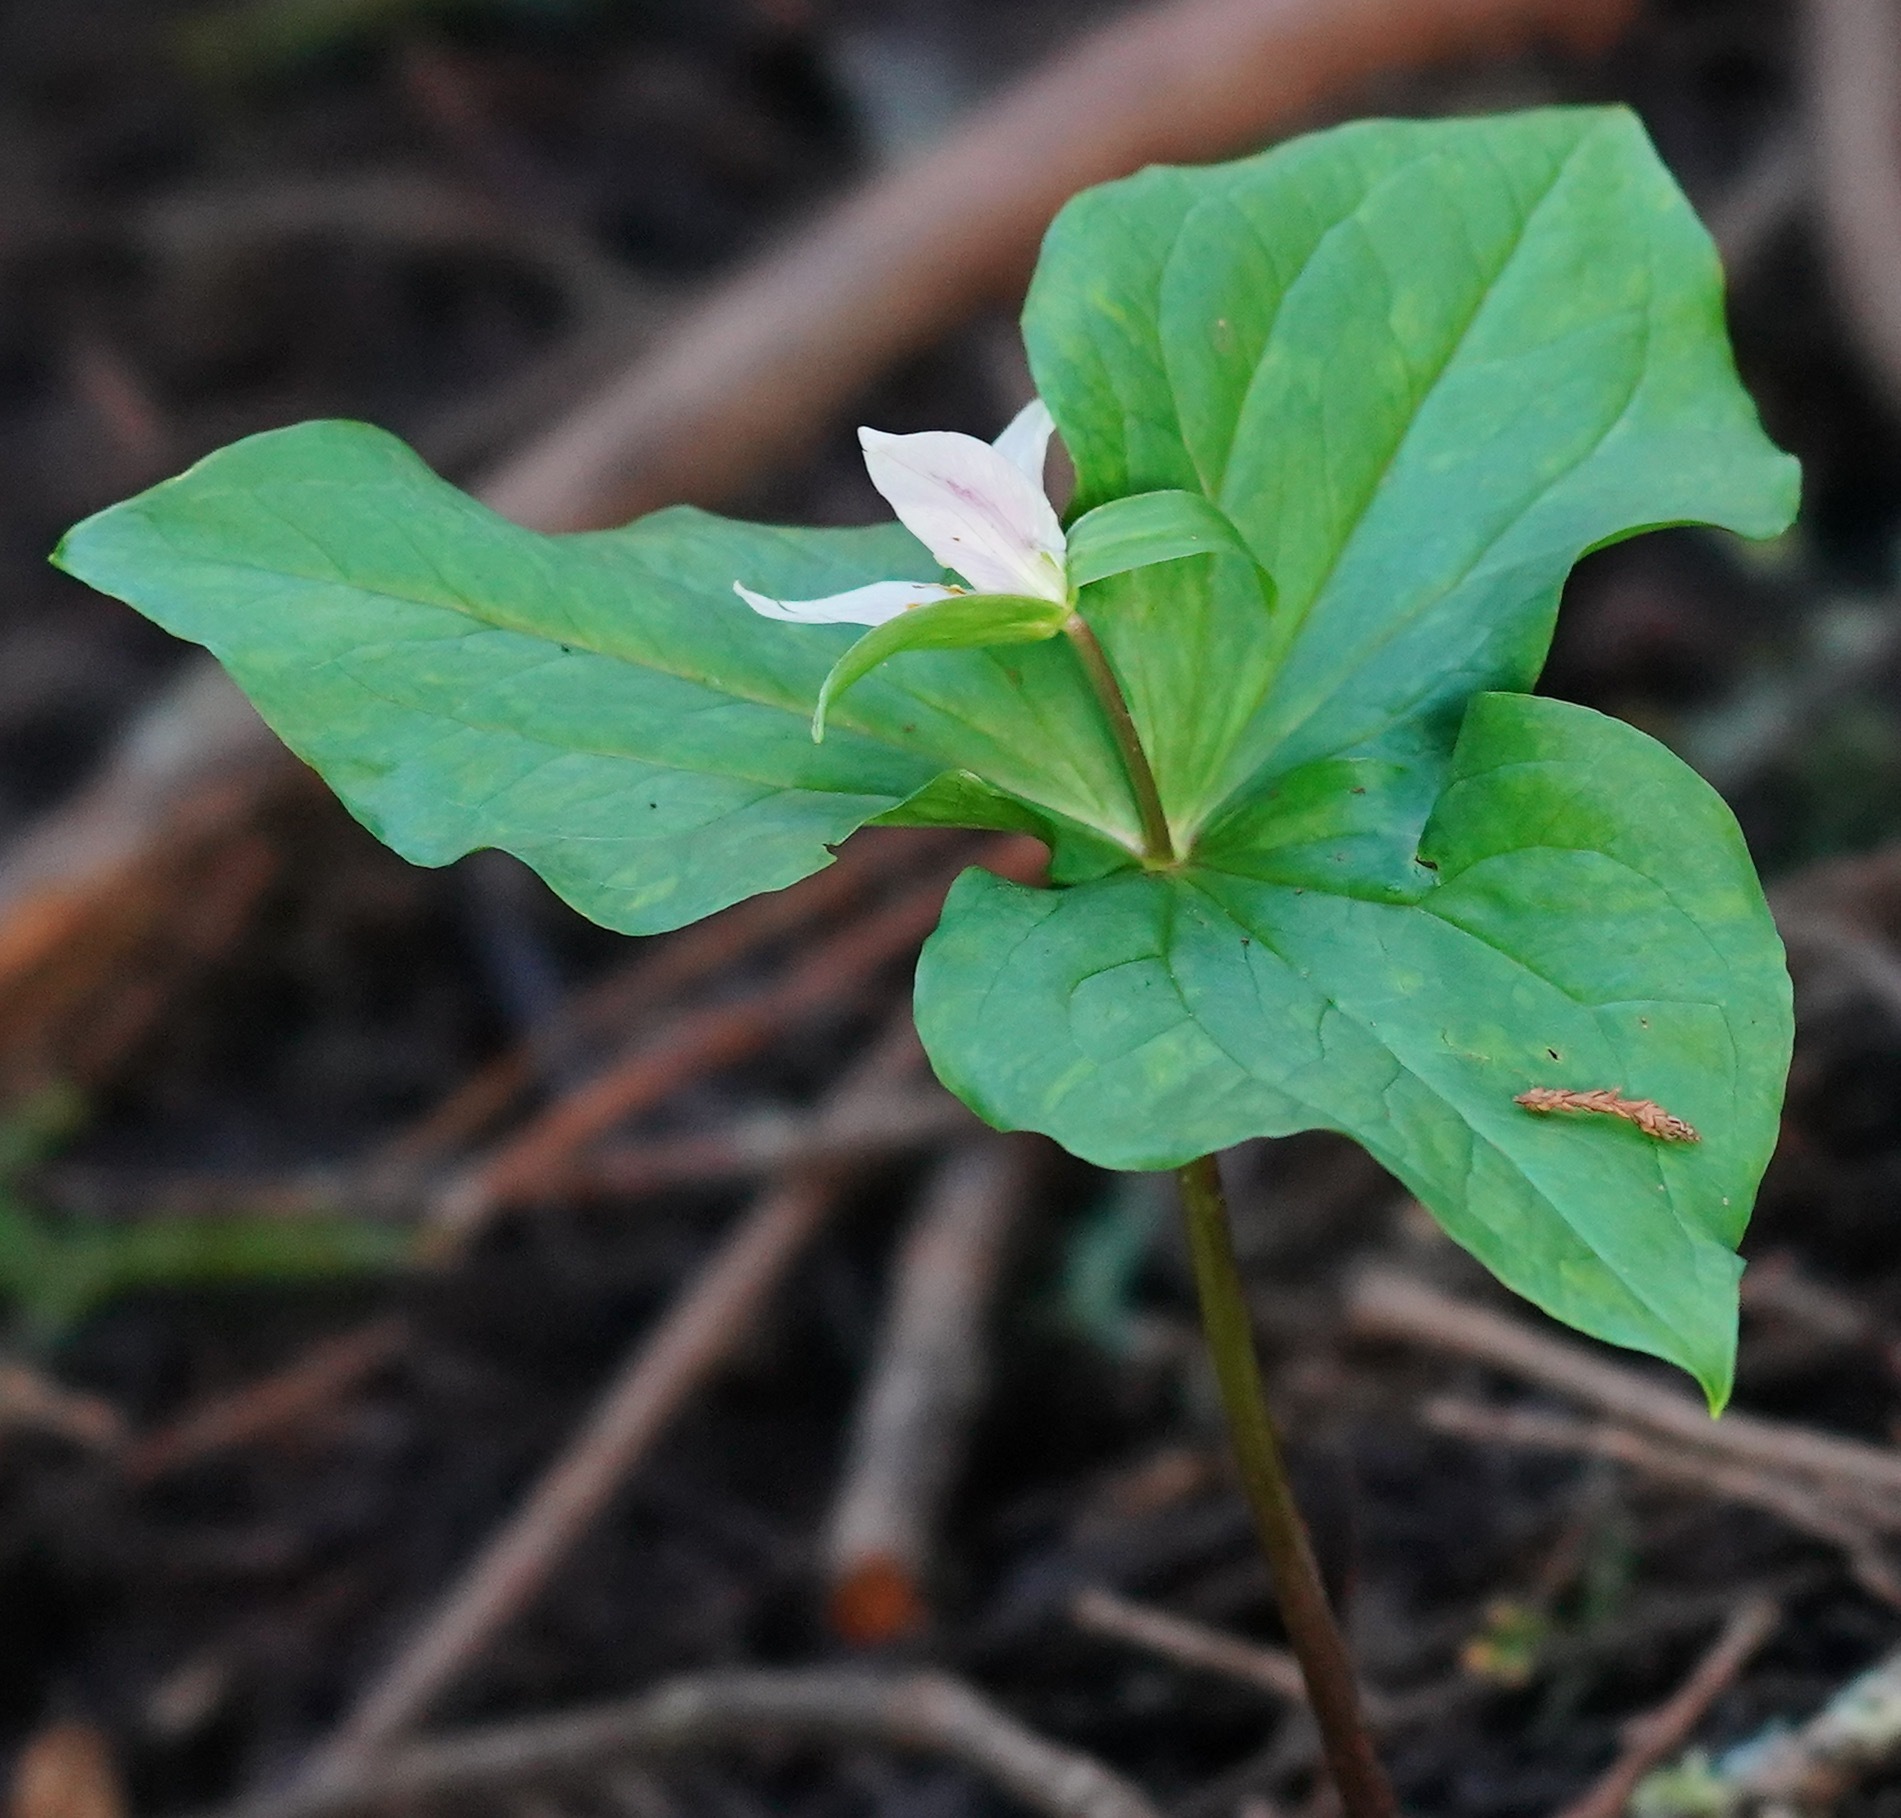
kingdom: Plantae
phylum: Tracheophyta
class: Liliopsida
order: Liliales
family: Melanthiaceae
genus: Trillium
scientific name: Trillium ovatum
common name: Pacific trillium
